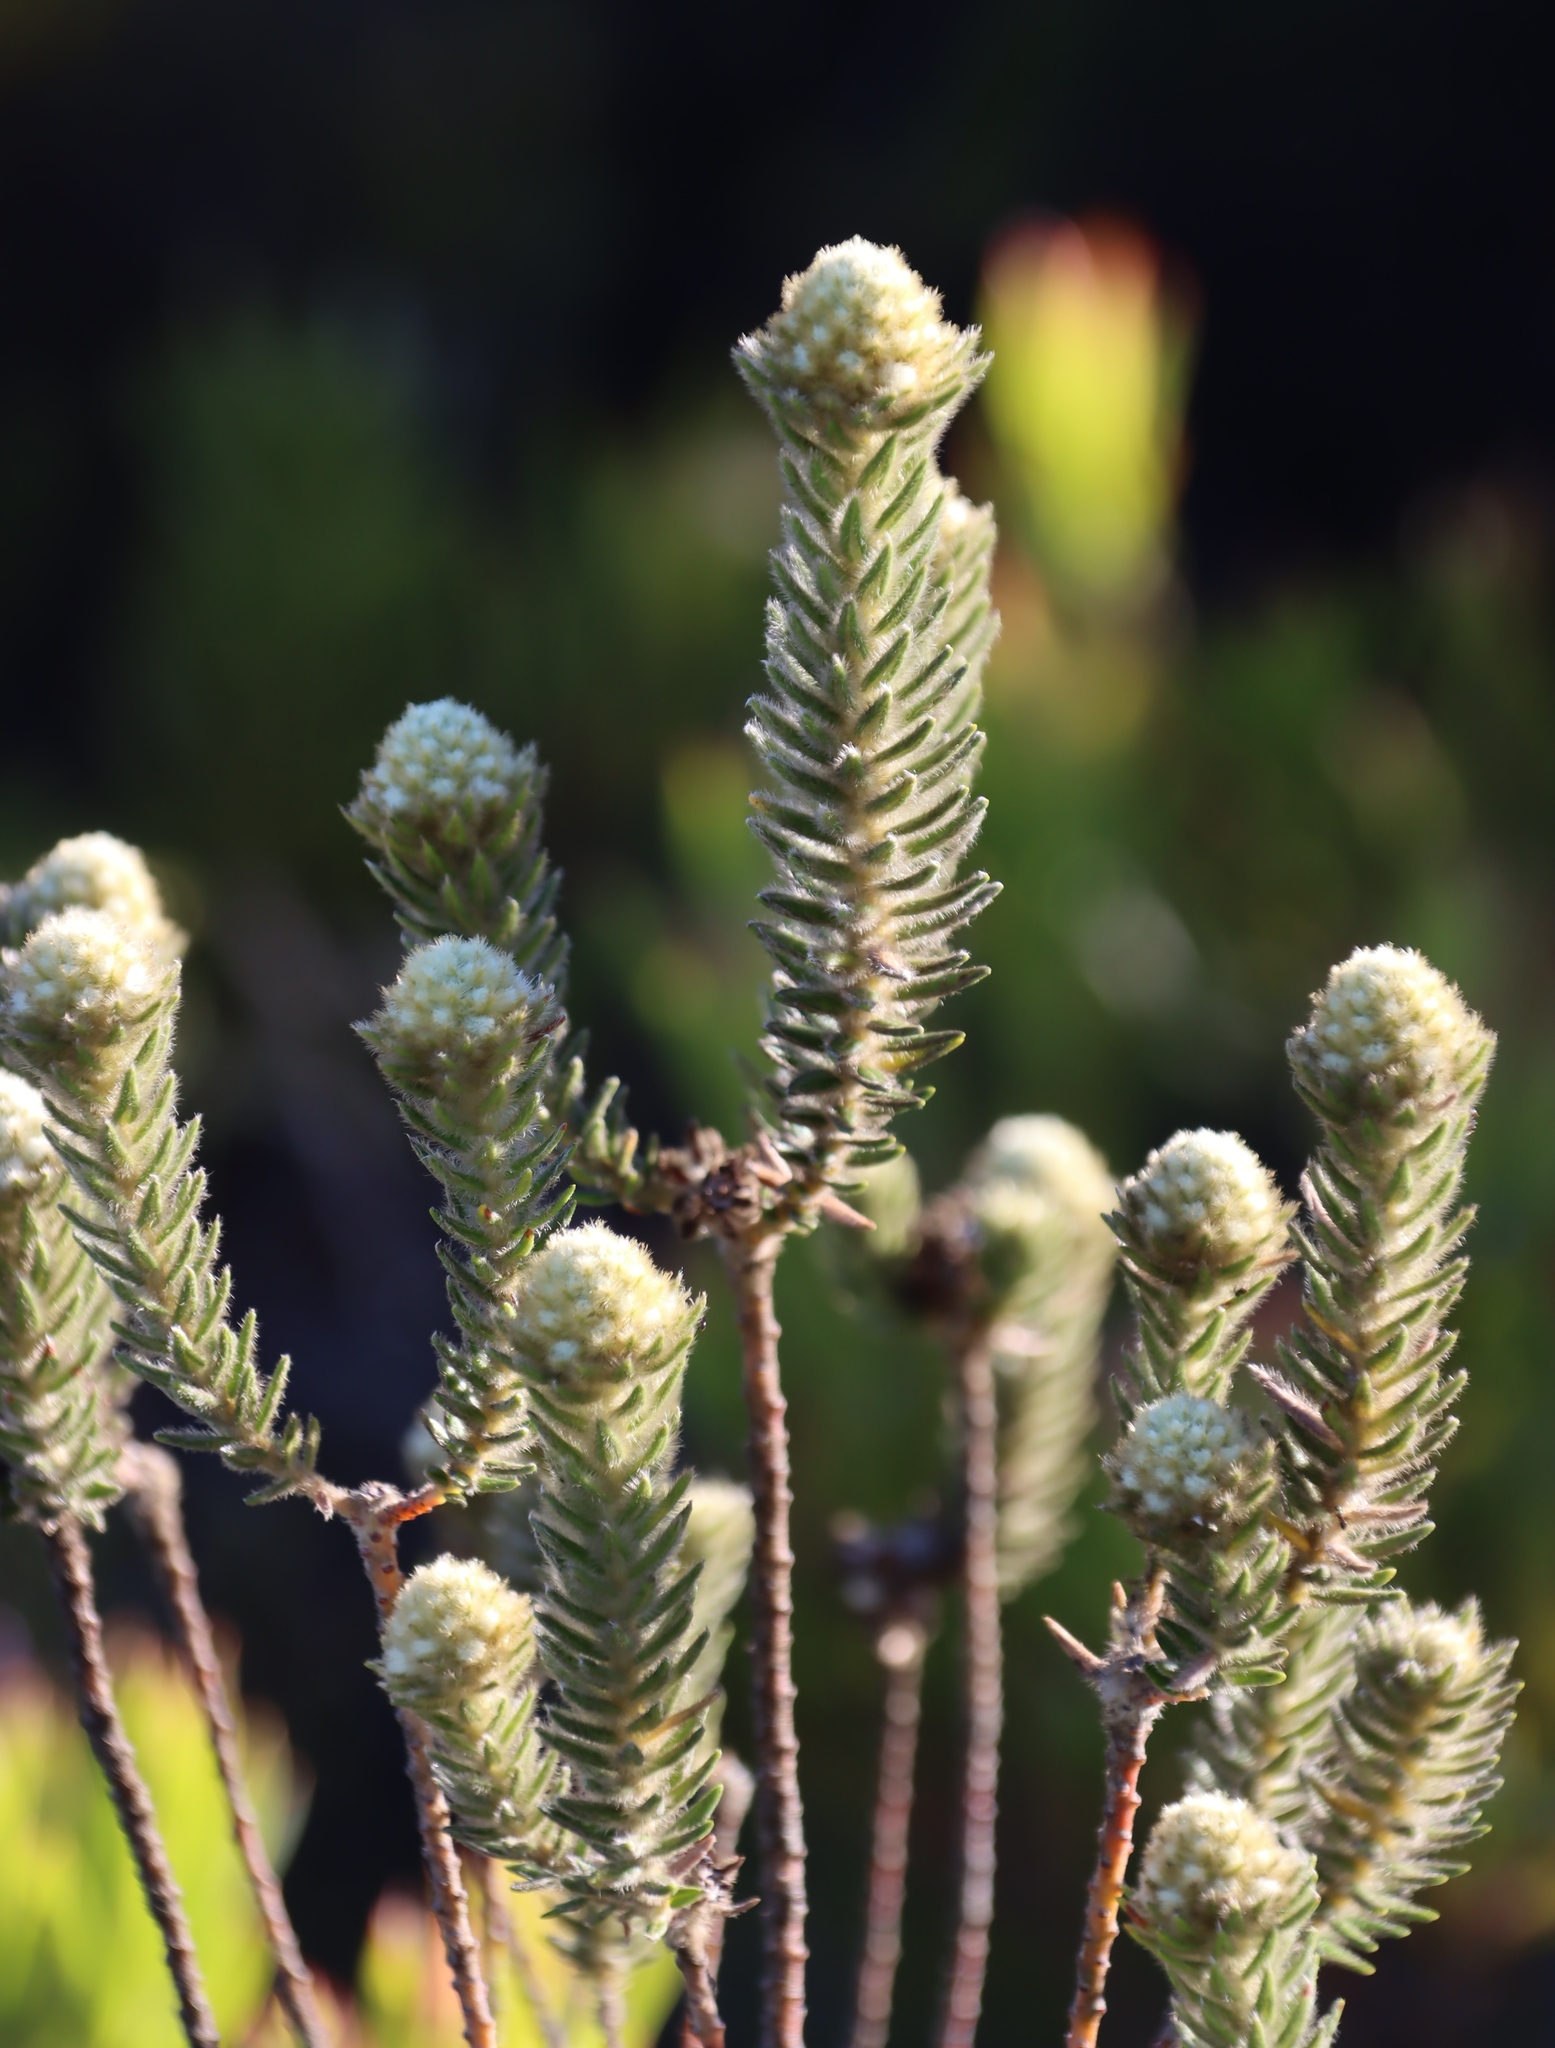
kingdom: Plantae
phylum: Tracheophyta
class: Magnoliopsida
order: Rosales
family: Rhamnaceae
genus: Phylica
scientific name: Phylica strigosa
